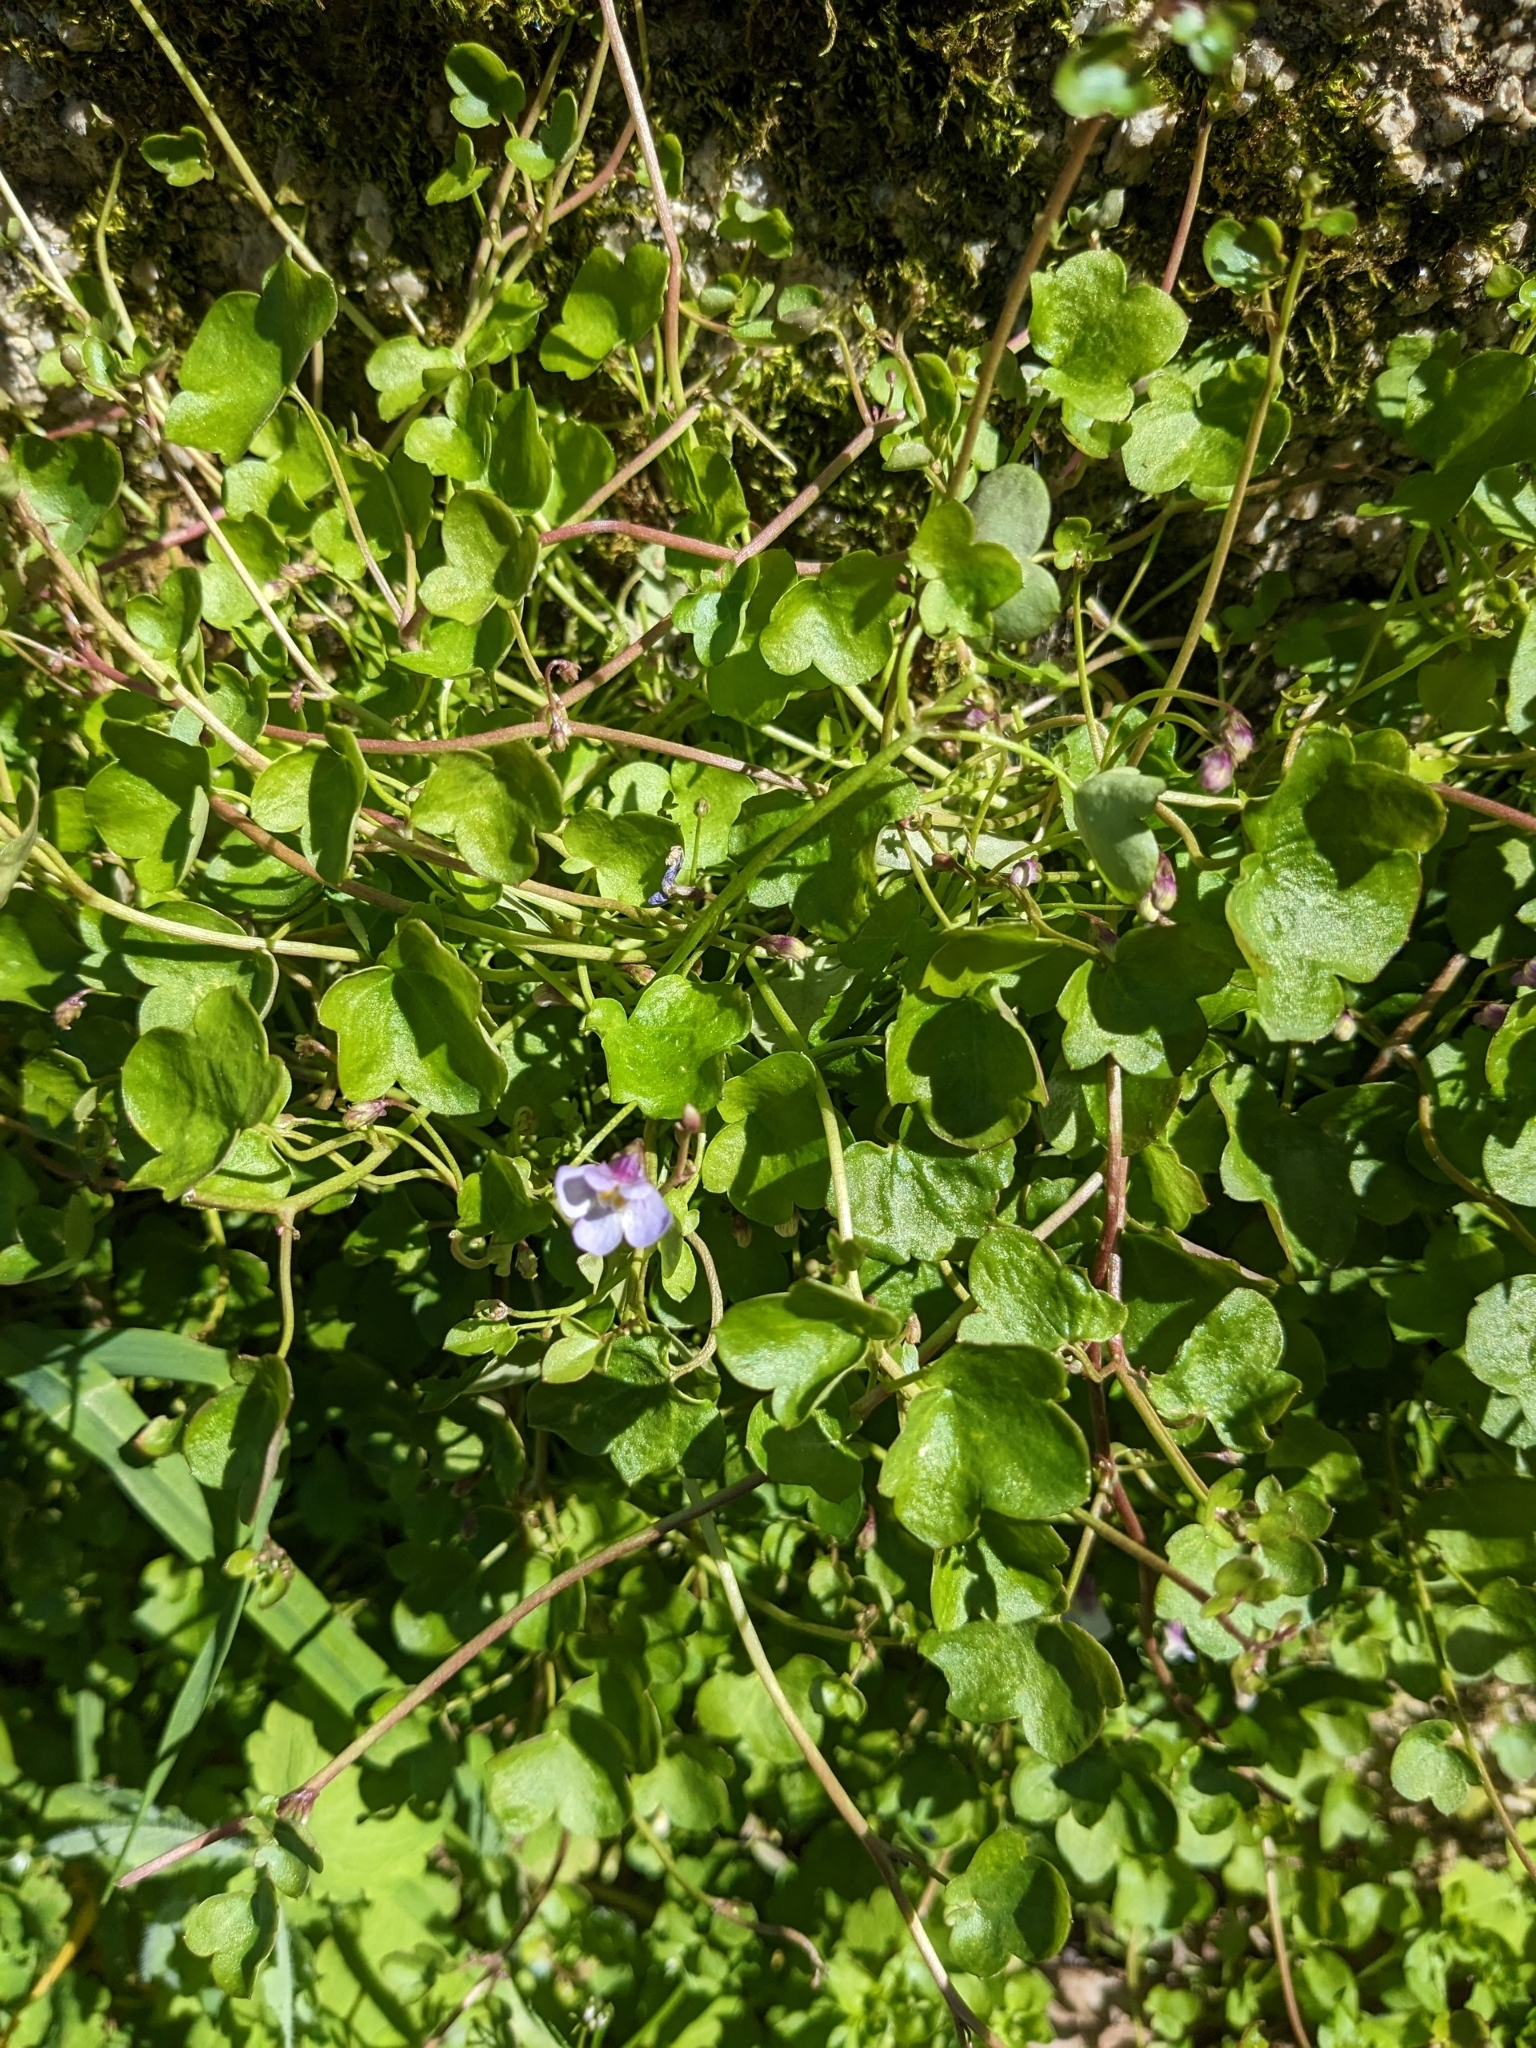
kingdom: Plantae
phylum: Tracheophyta
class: Magnoliopsida
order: Lamiales
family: Plantaginaceae
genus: Cymbalaria
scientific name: Cymbalaria muralis
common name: Ivy-leaved toadflax
